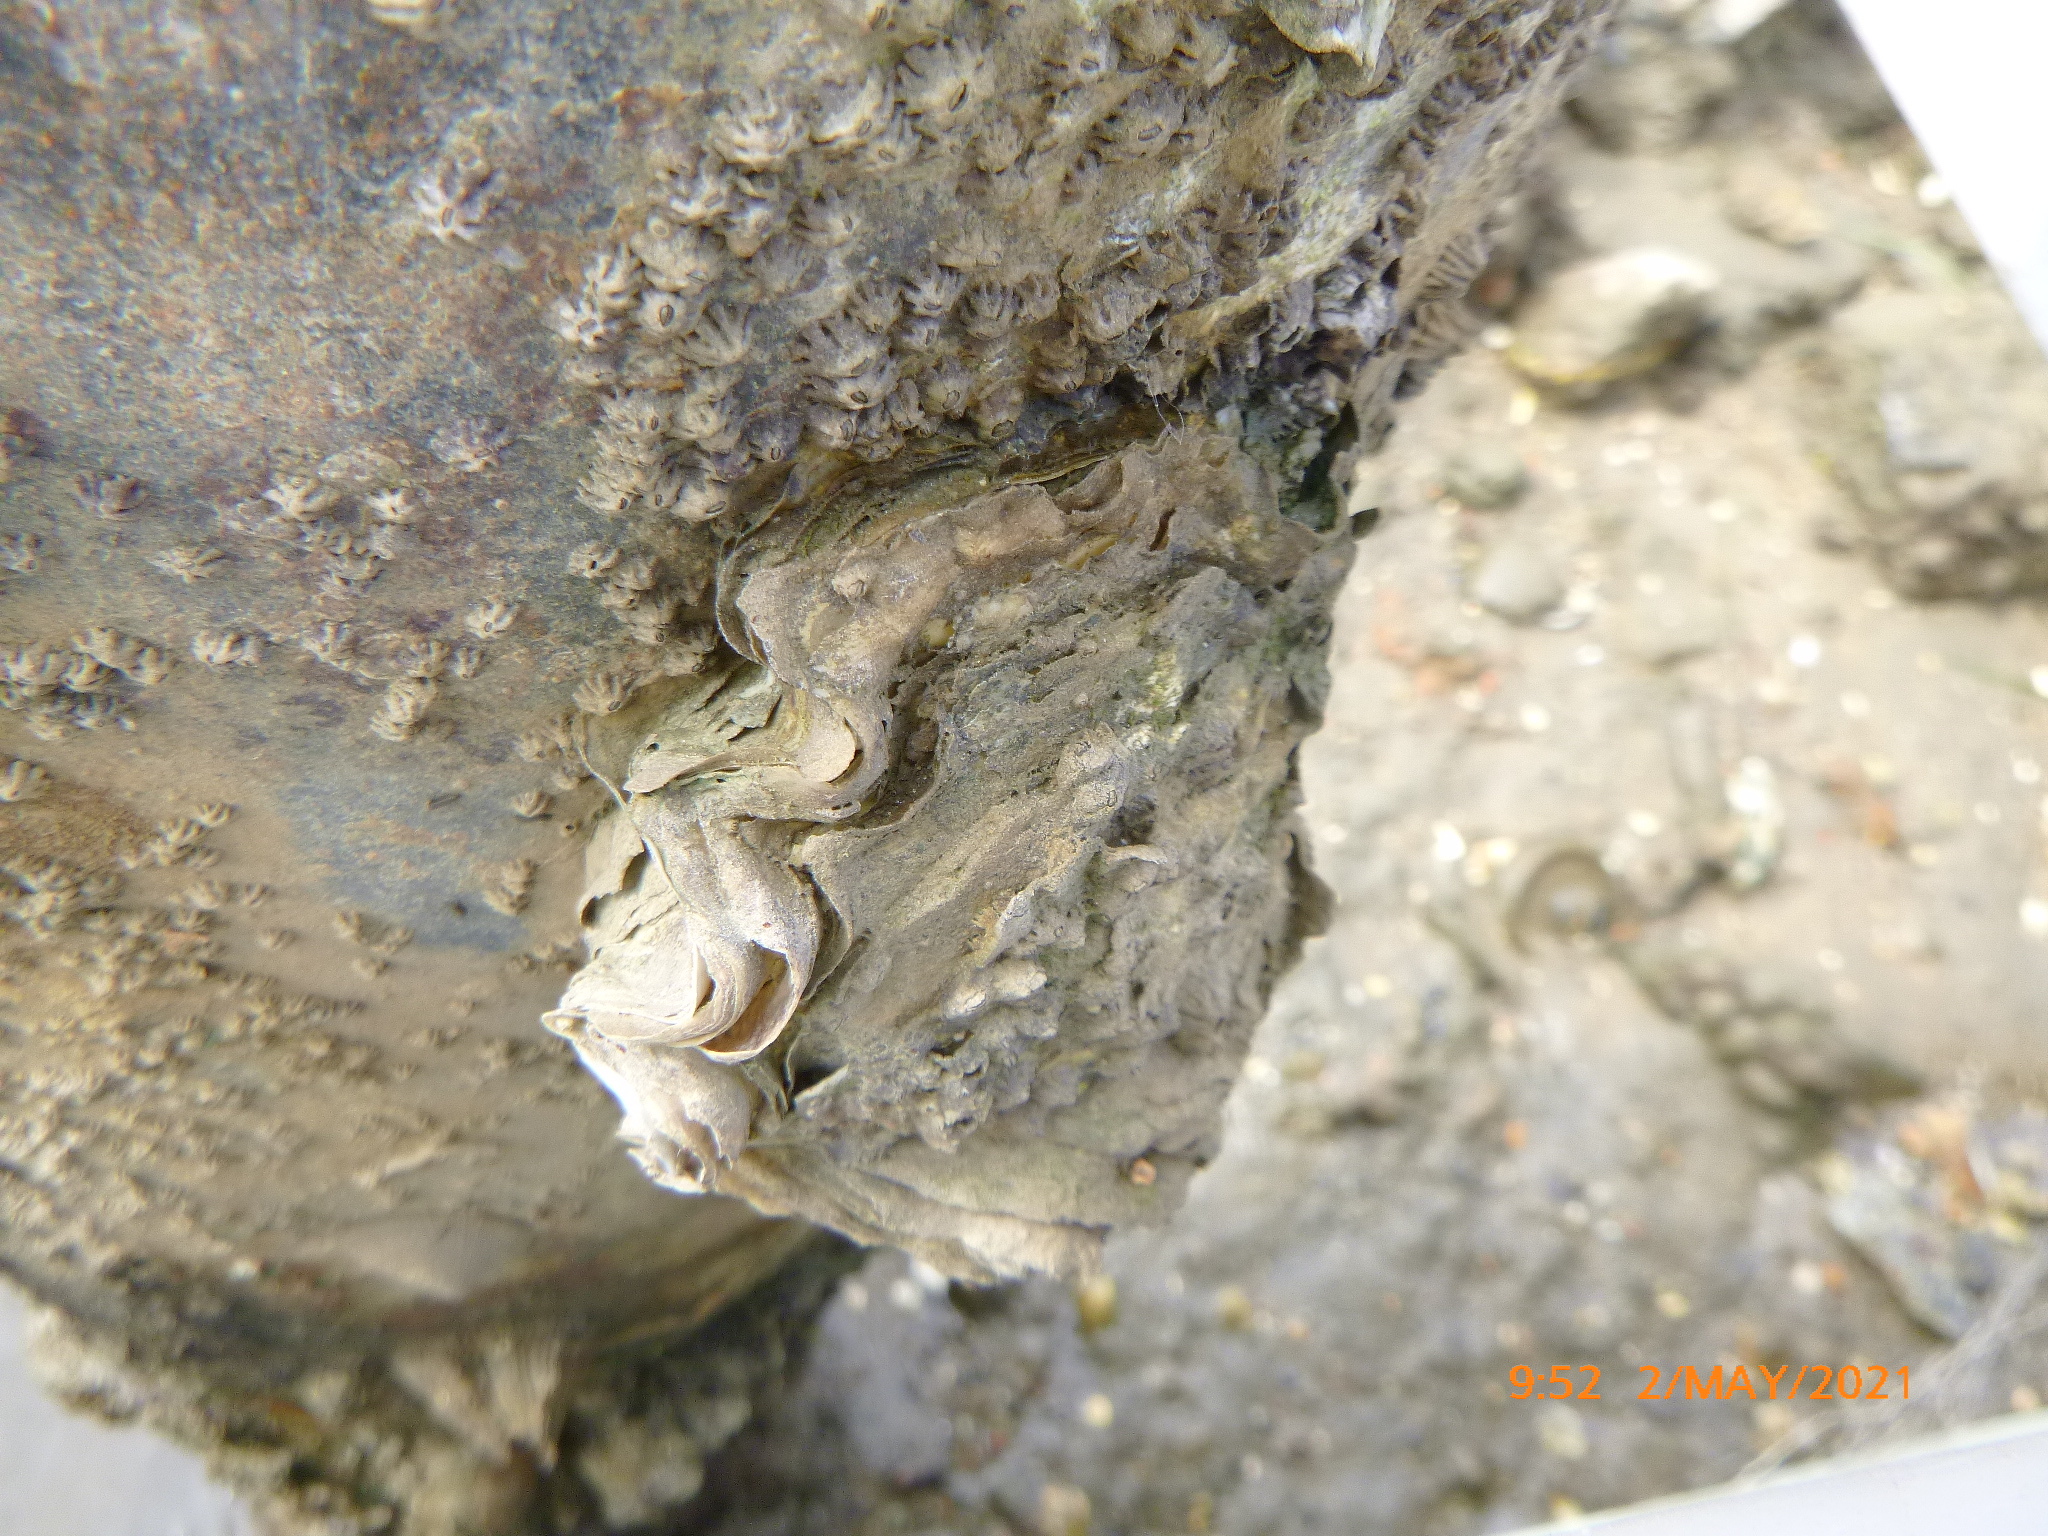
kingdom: Animalia
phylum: Mollusca
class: Bivalvia
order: Ostreida
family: Ostreidae
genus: Magallana
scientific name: Magallana gigas
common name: Pacific oyster
